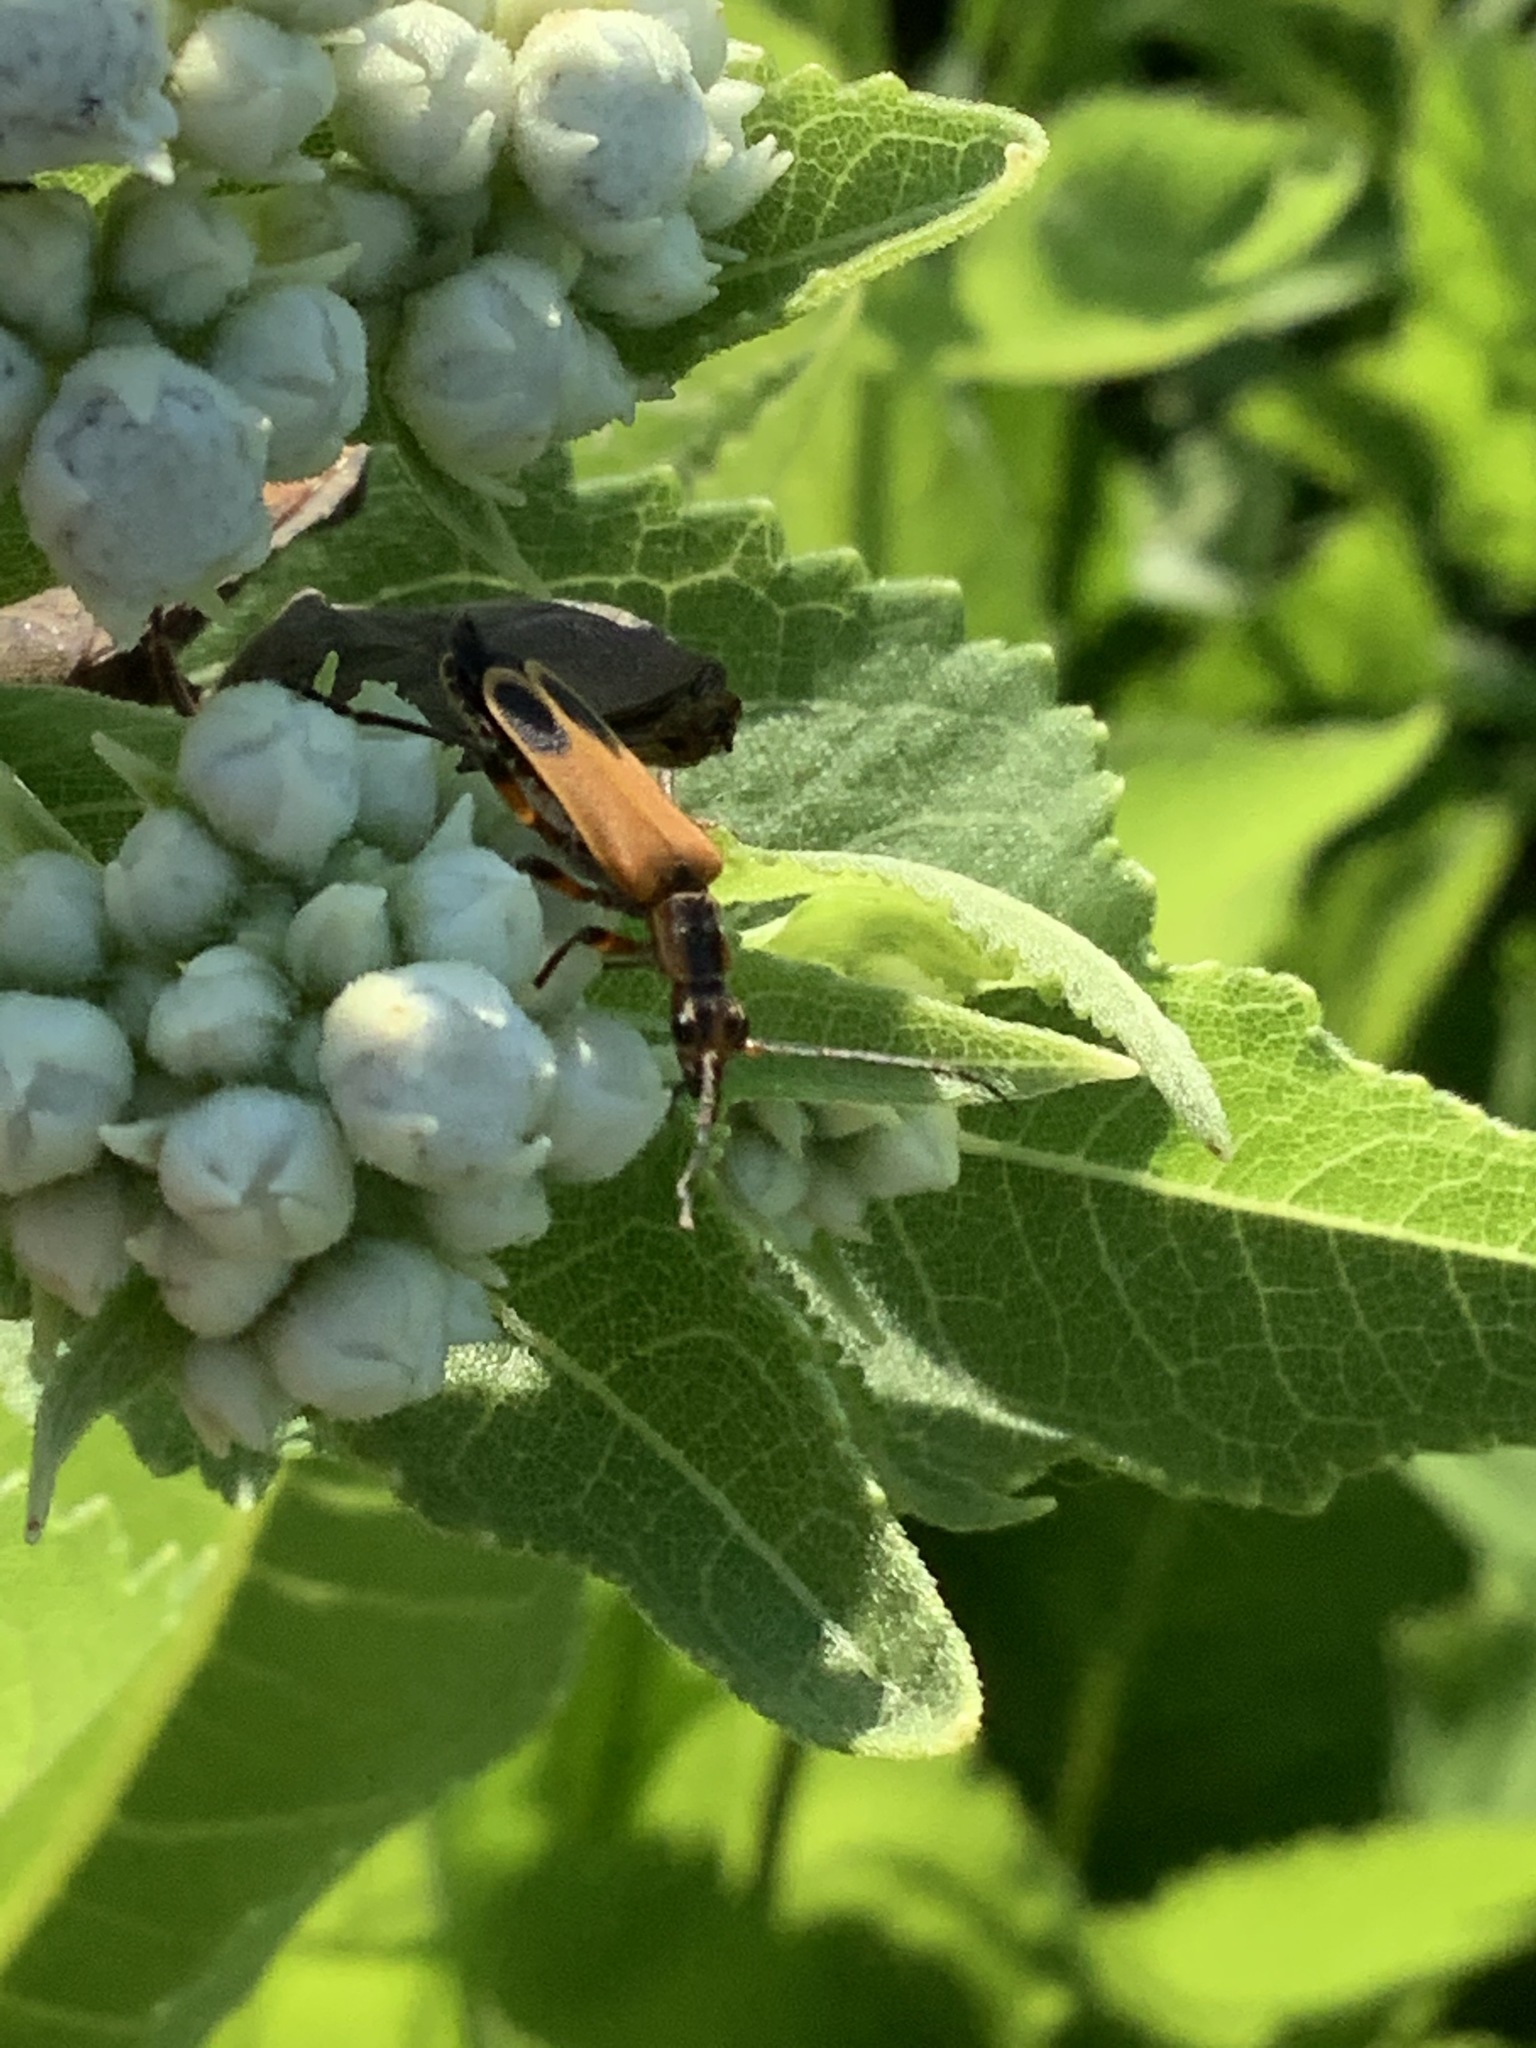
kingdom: Animalia
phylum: Arthropoda
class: Insecta
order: Coleoptera
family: Cantharidae
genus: Chauliognathus
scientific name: Chauliognathus marginatus
